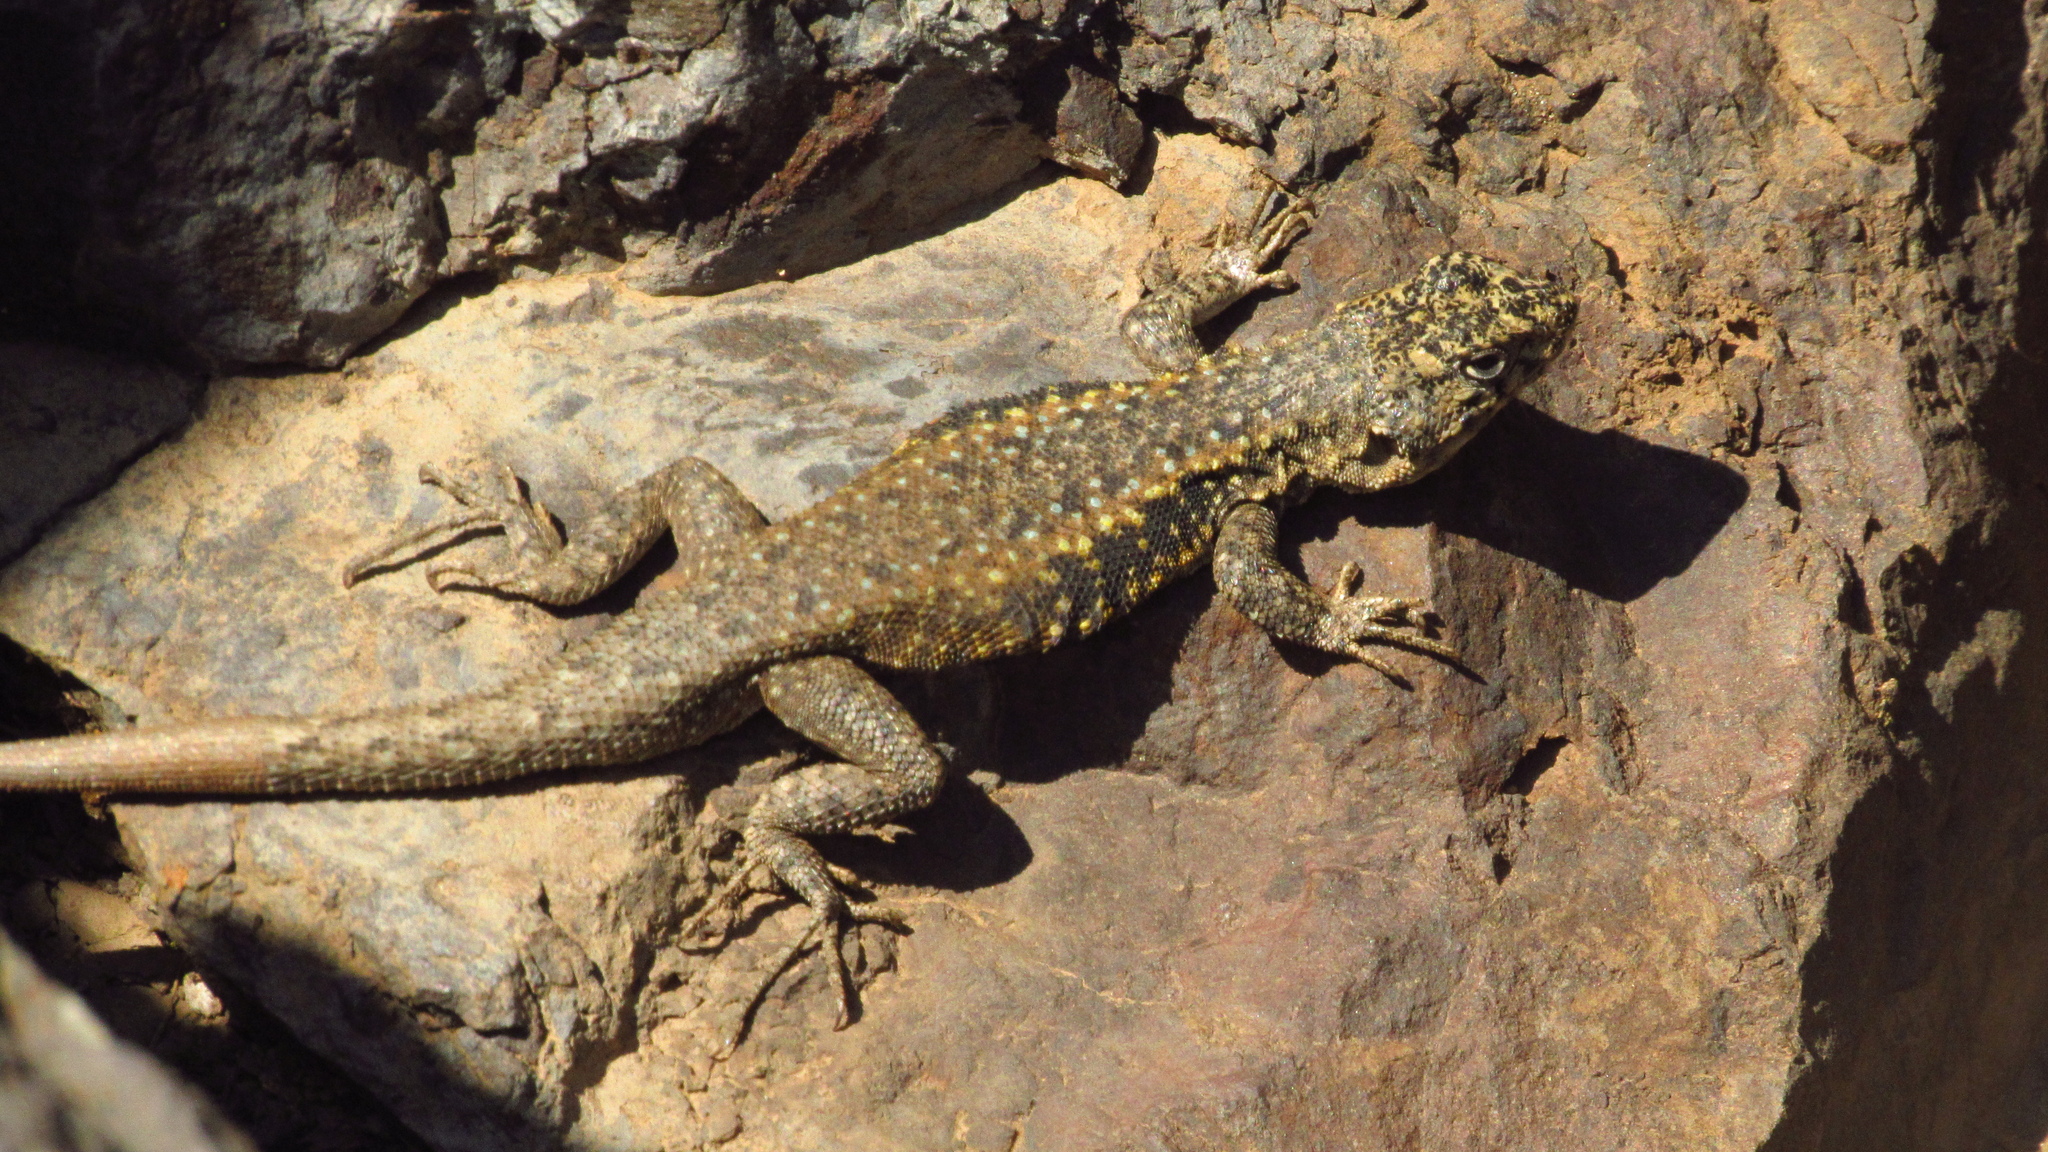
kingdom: Animalia
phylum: Chordata
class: Squamata
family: Liolaemidae
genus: Liolaemus
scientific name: Liolaemus monticola
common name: Peak tree iguana
